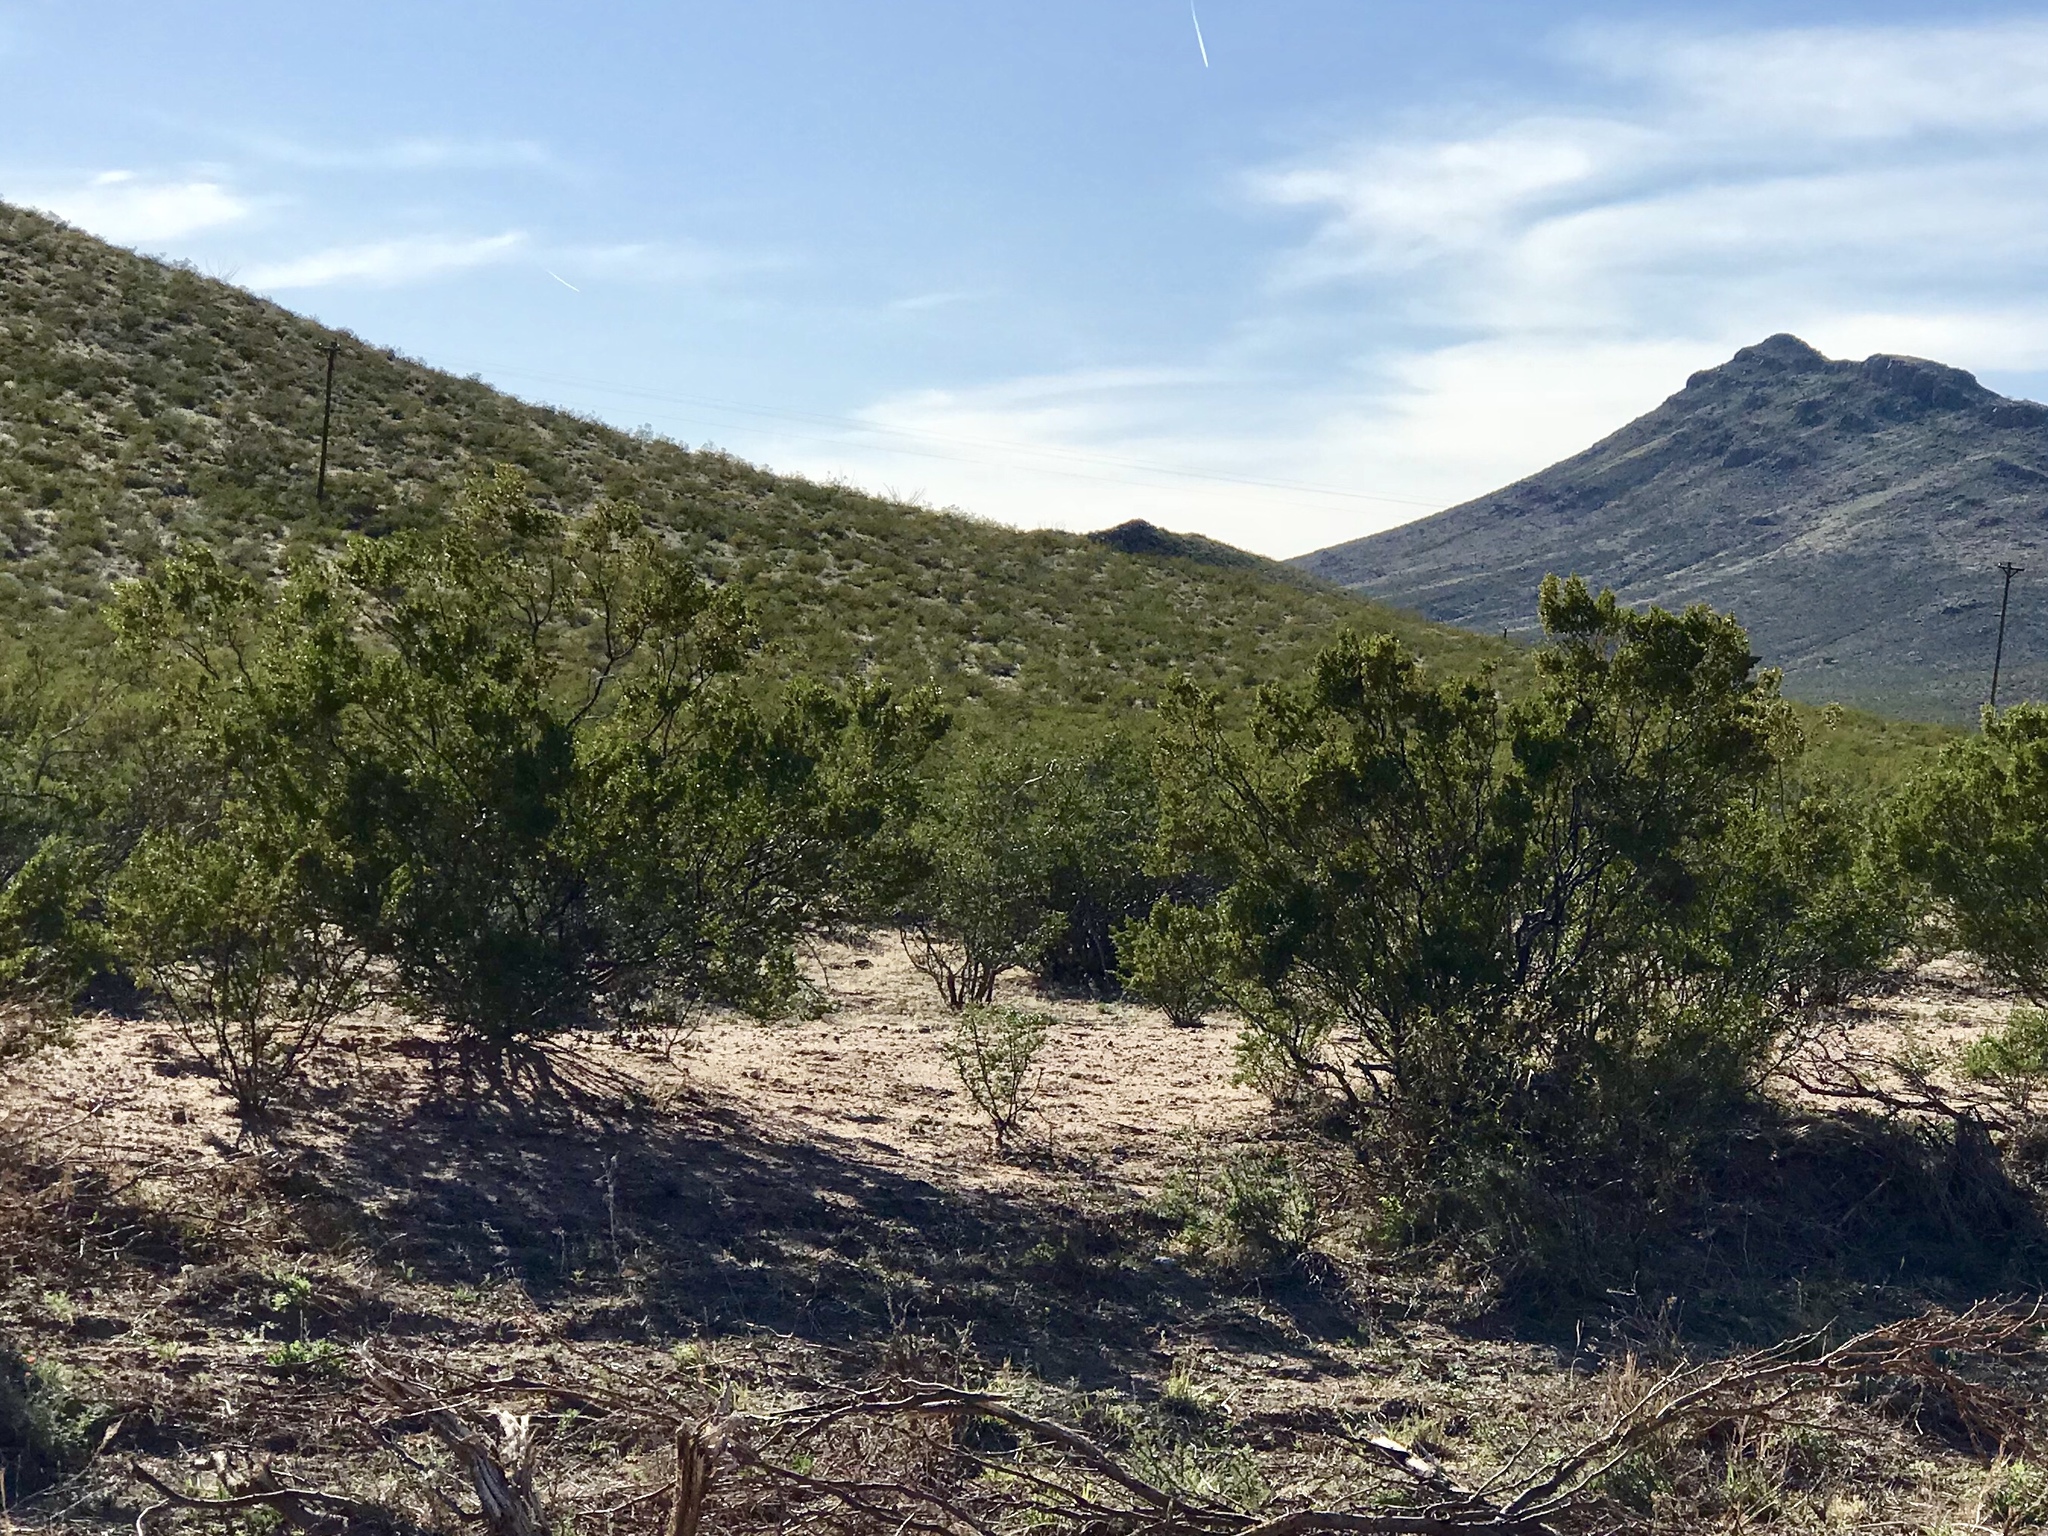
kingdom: Plantae
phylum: Tracheophyta
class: Magnoliopsida
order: Zygophyllales
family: Zygophyllaceae
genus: Larrea
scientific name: Larrea tridentata
